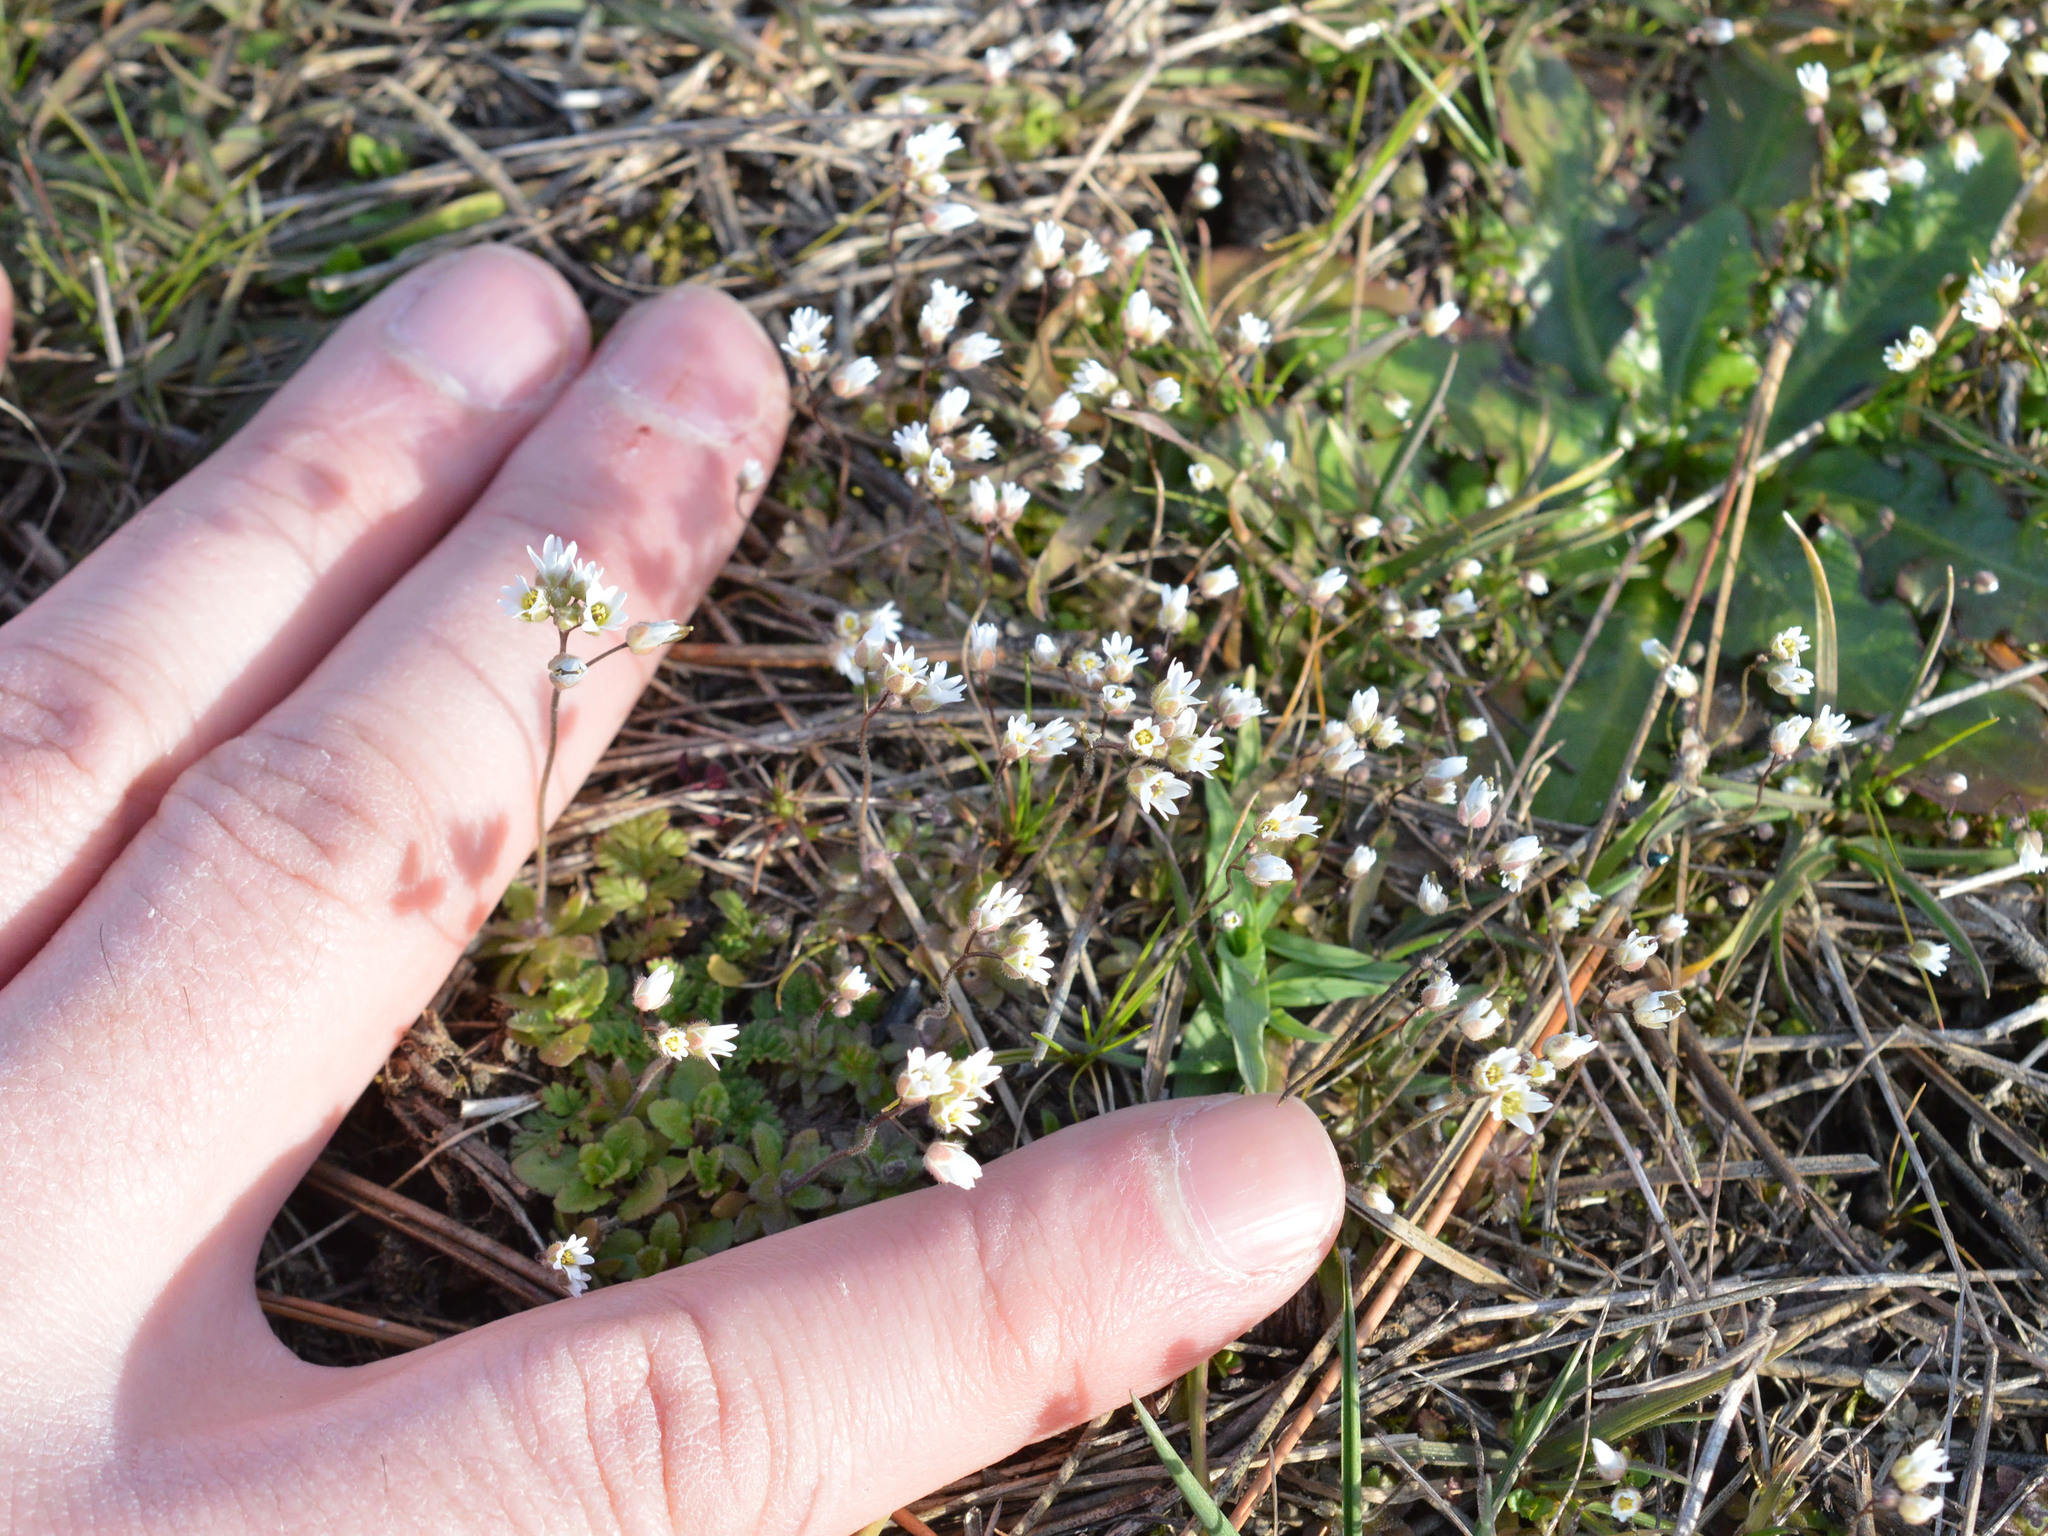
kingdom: Plantae
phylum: Tracheophyta
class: Magnoliopsida
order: Brassicales
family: Brassicaceae
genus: Draba
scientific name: Draba verna
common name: Spring draba
